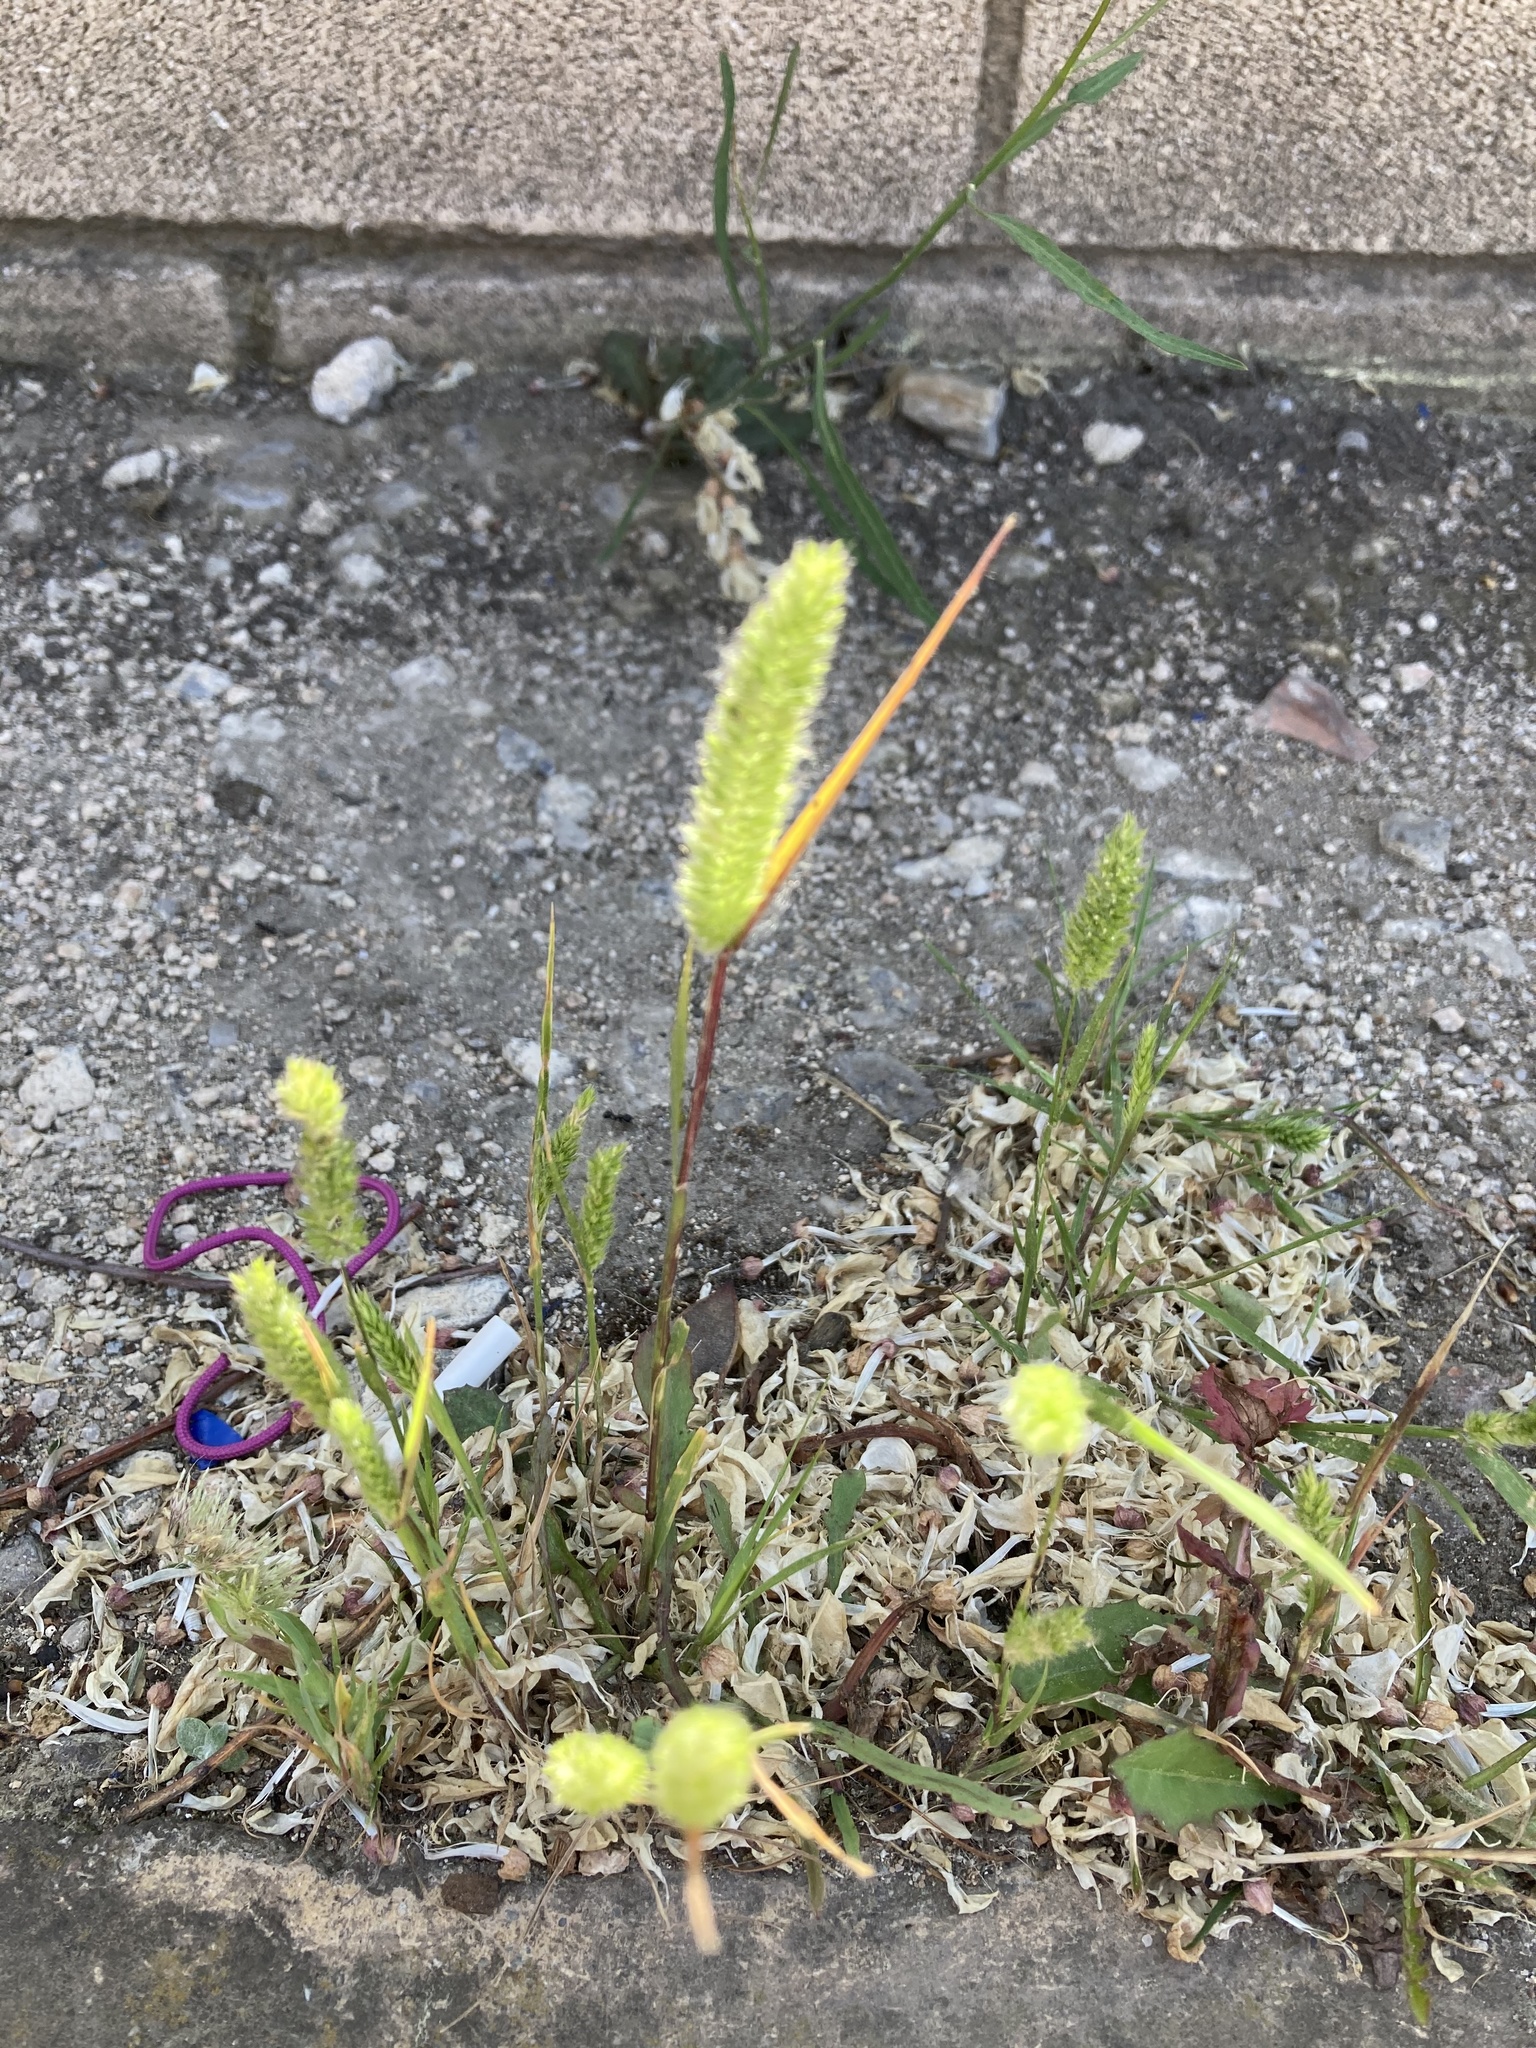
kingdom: Plantae
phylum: Tracheophyta
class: Liliopsida
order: Poales
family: Poaceae
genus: Rostraria
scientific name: Rostraria cristata
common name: Mediterranean hair-grass
